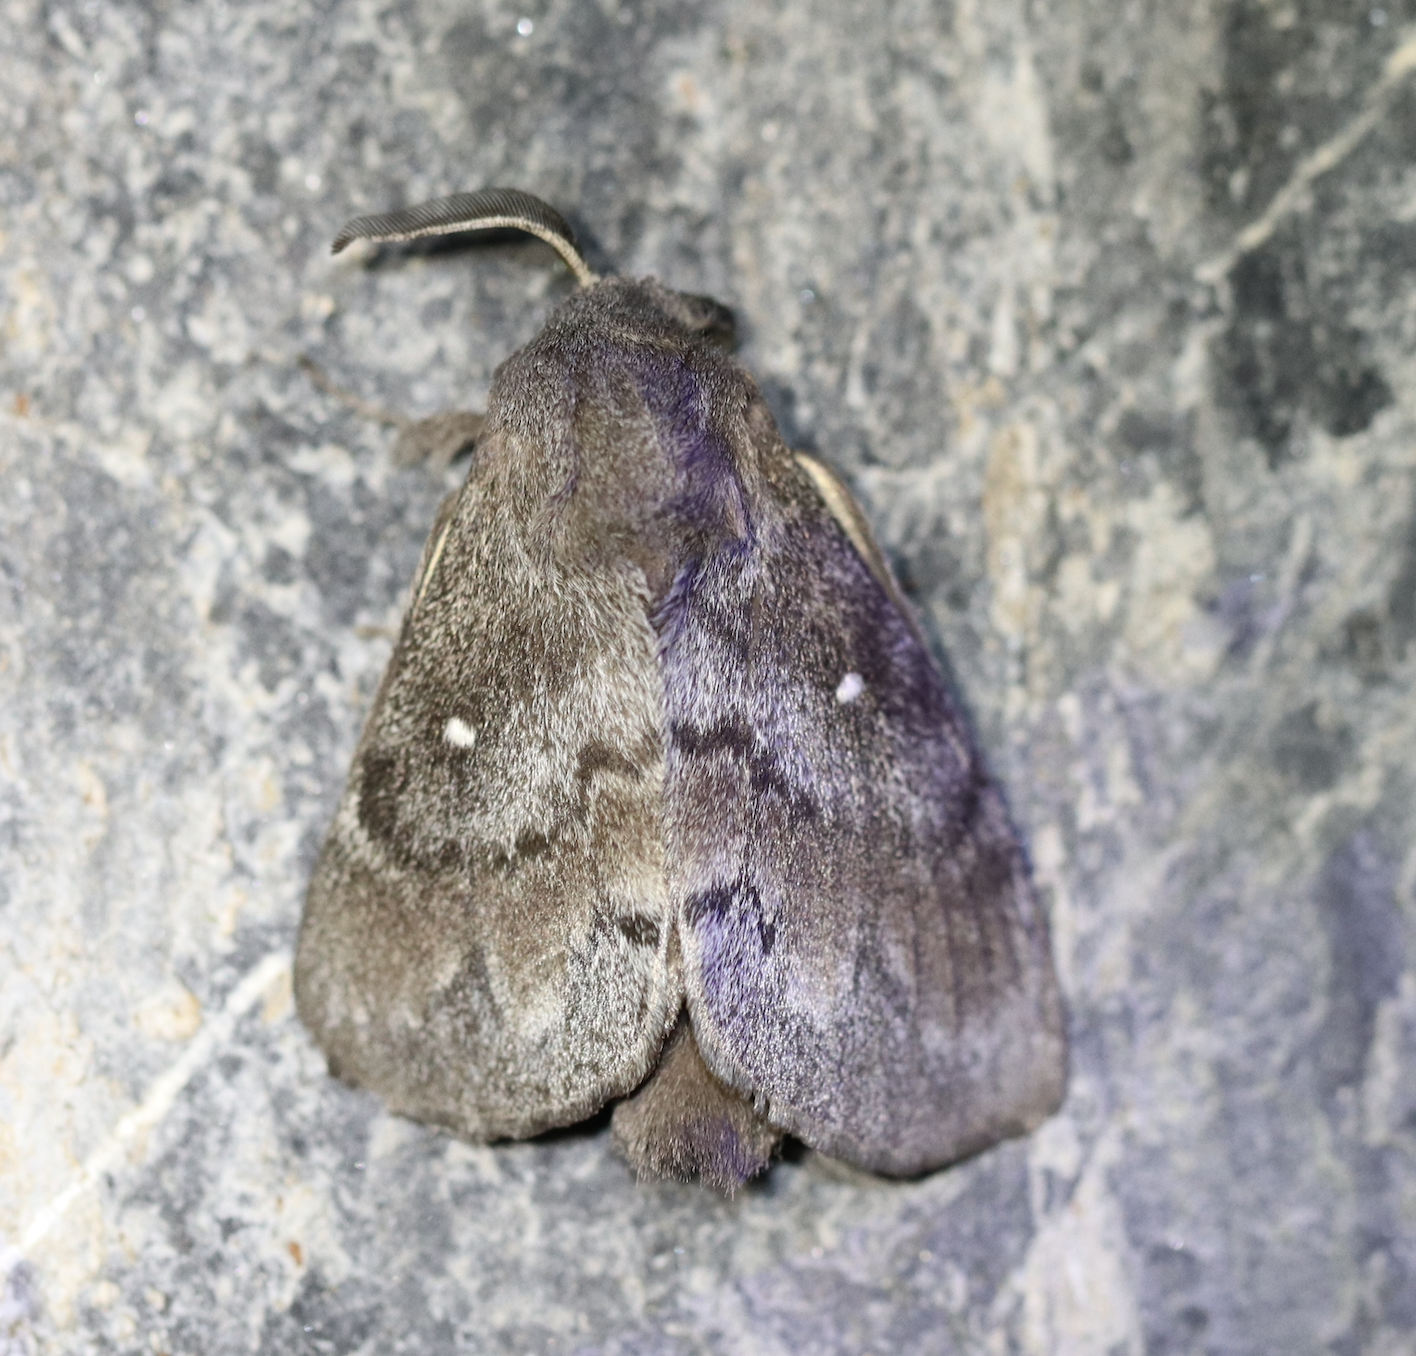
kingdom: Animalia
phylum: Arthropoda
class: Insecta
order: Lepidoptera
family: Lasiocampidae
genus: Dendrolimus
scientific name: Dendrolimus pini
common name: Pine-tree lappet
